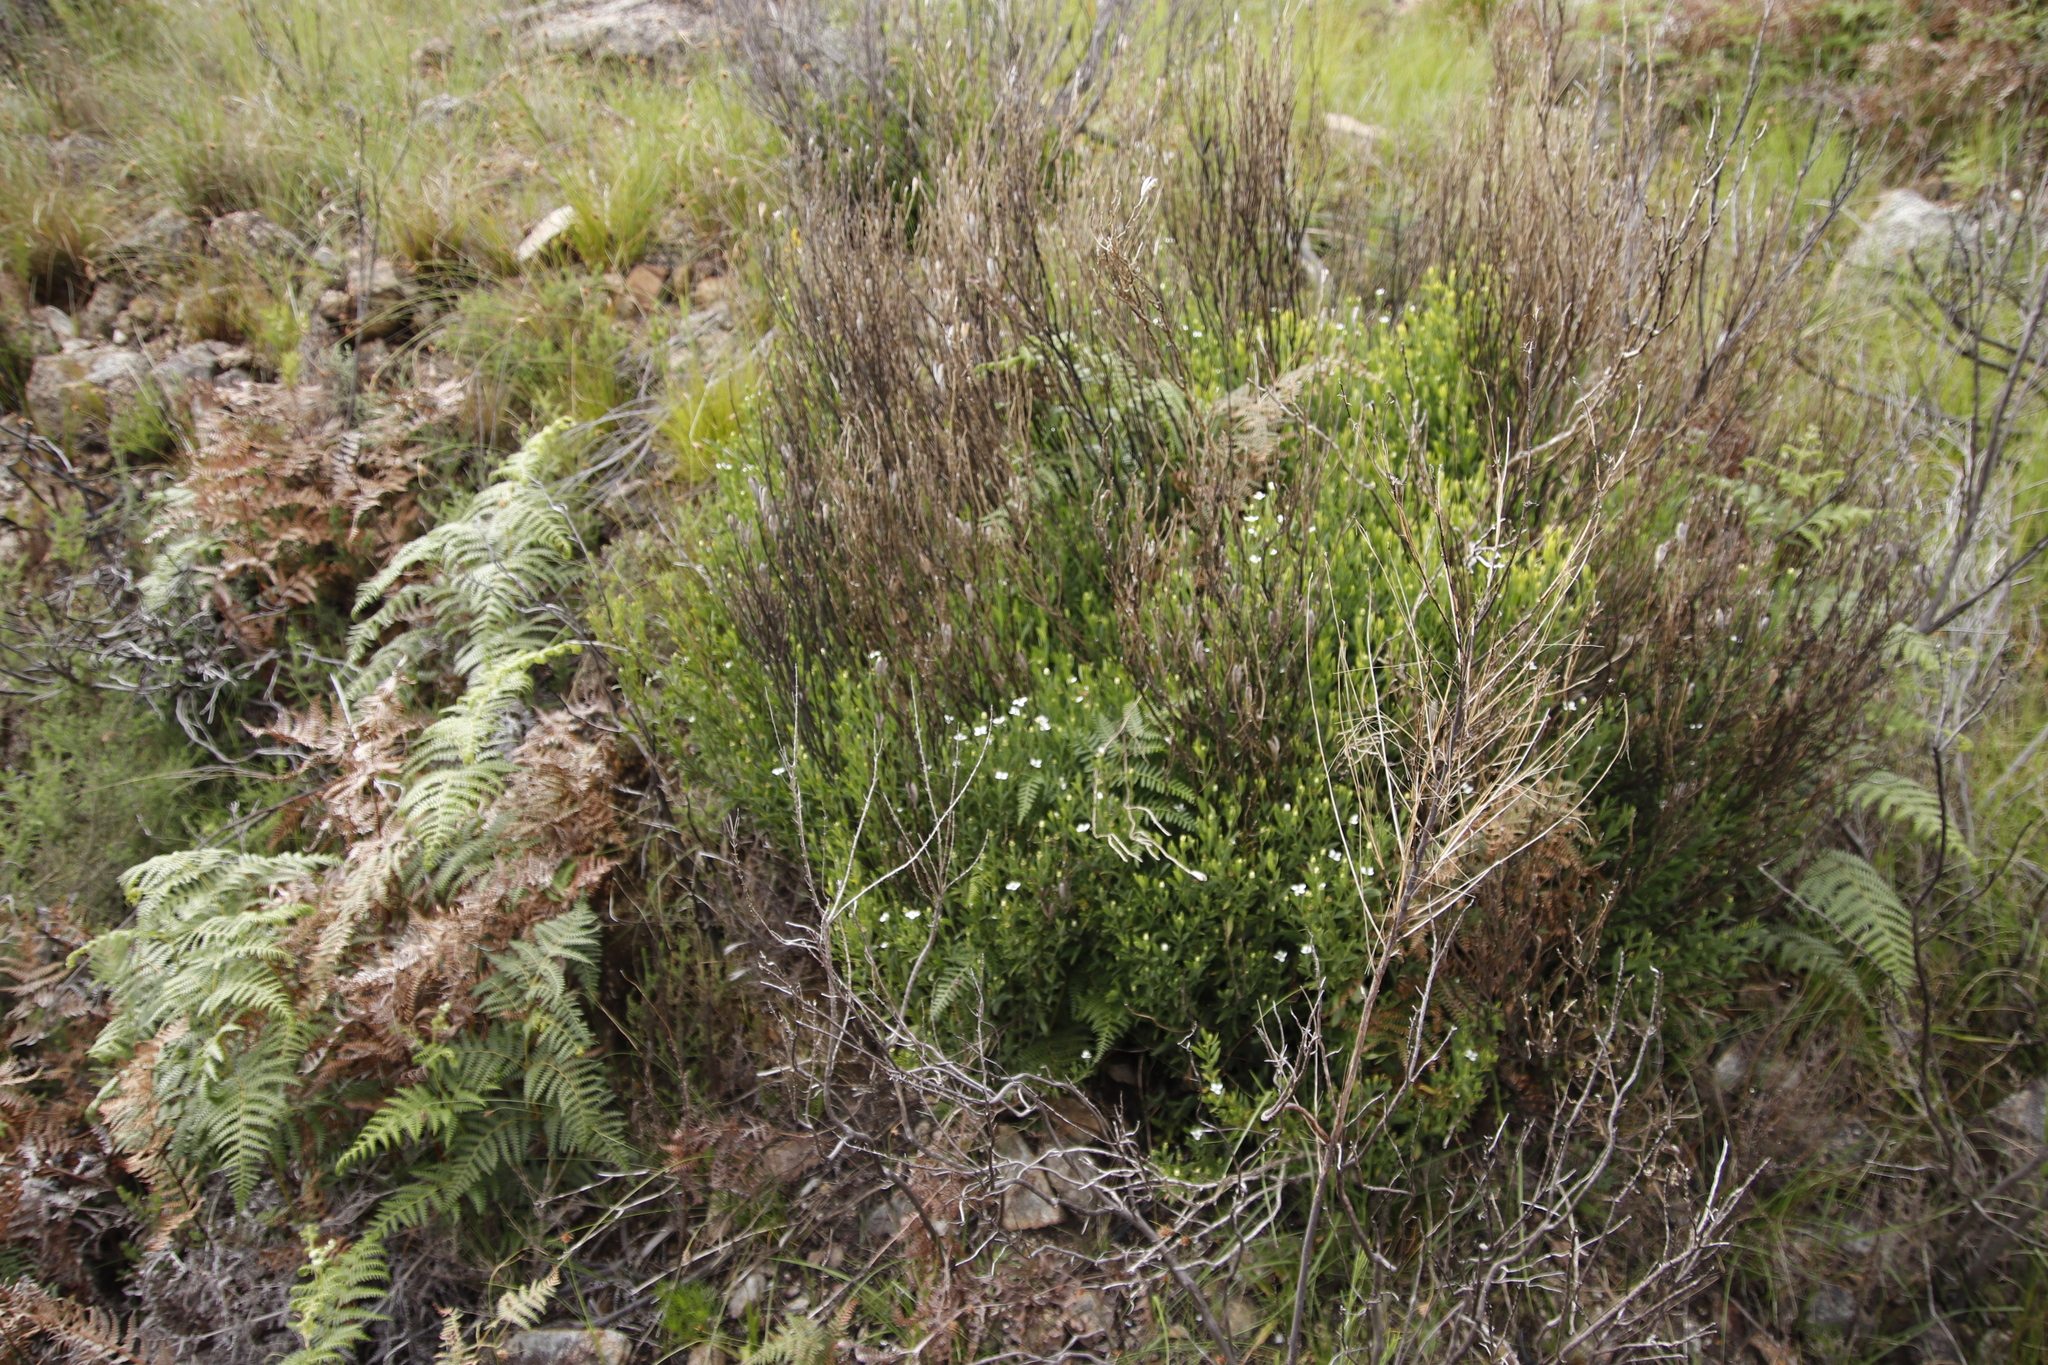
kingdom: Plantae
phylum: Tracheophyta
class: Magnoliopsida
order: Solanales
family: Montiniaceae
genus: Montinia
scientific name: Montinia caryophyllacea
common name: Wild clove-bush
